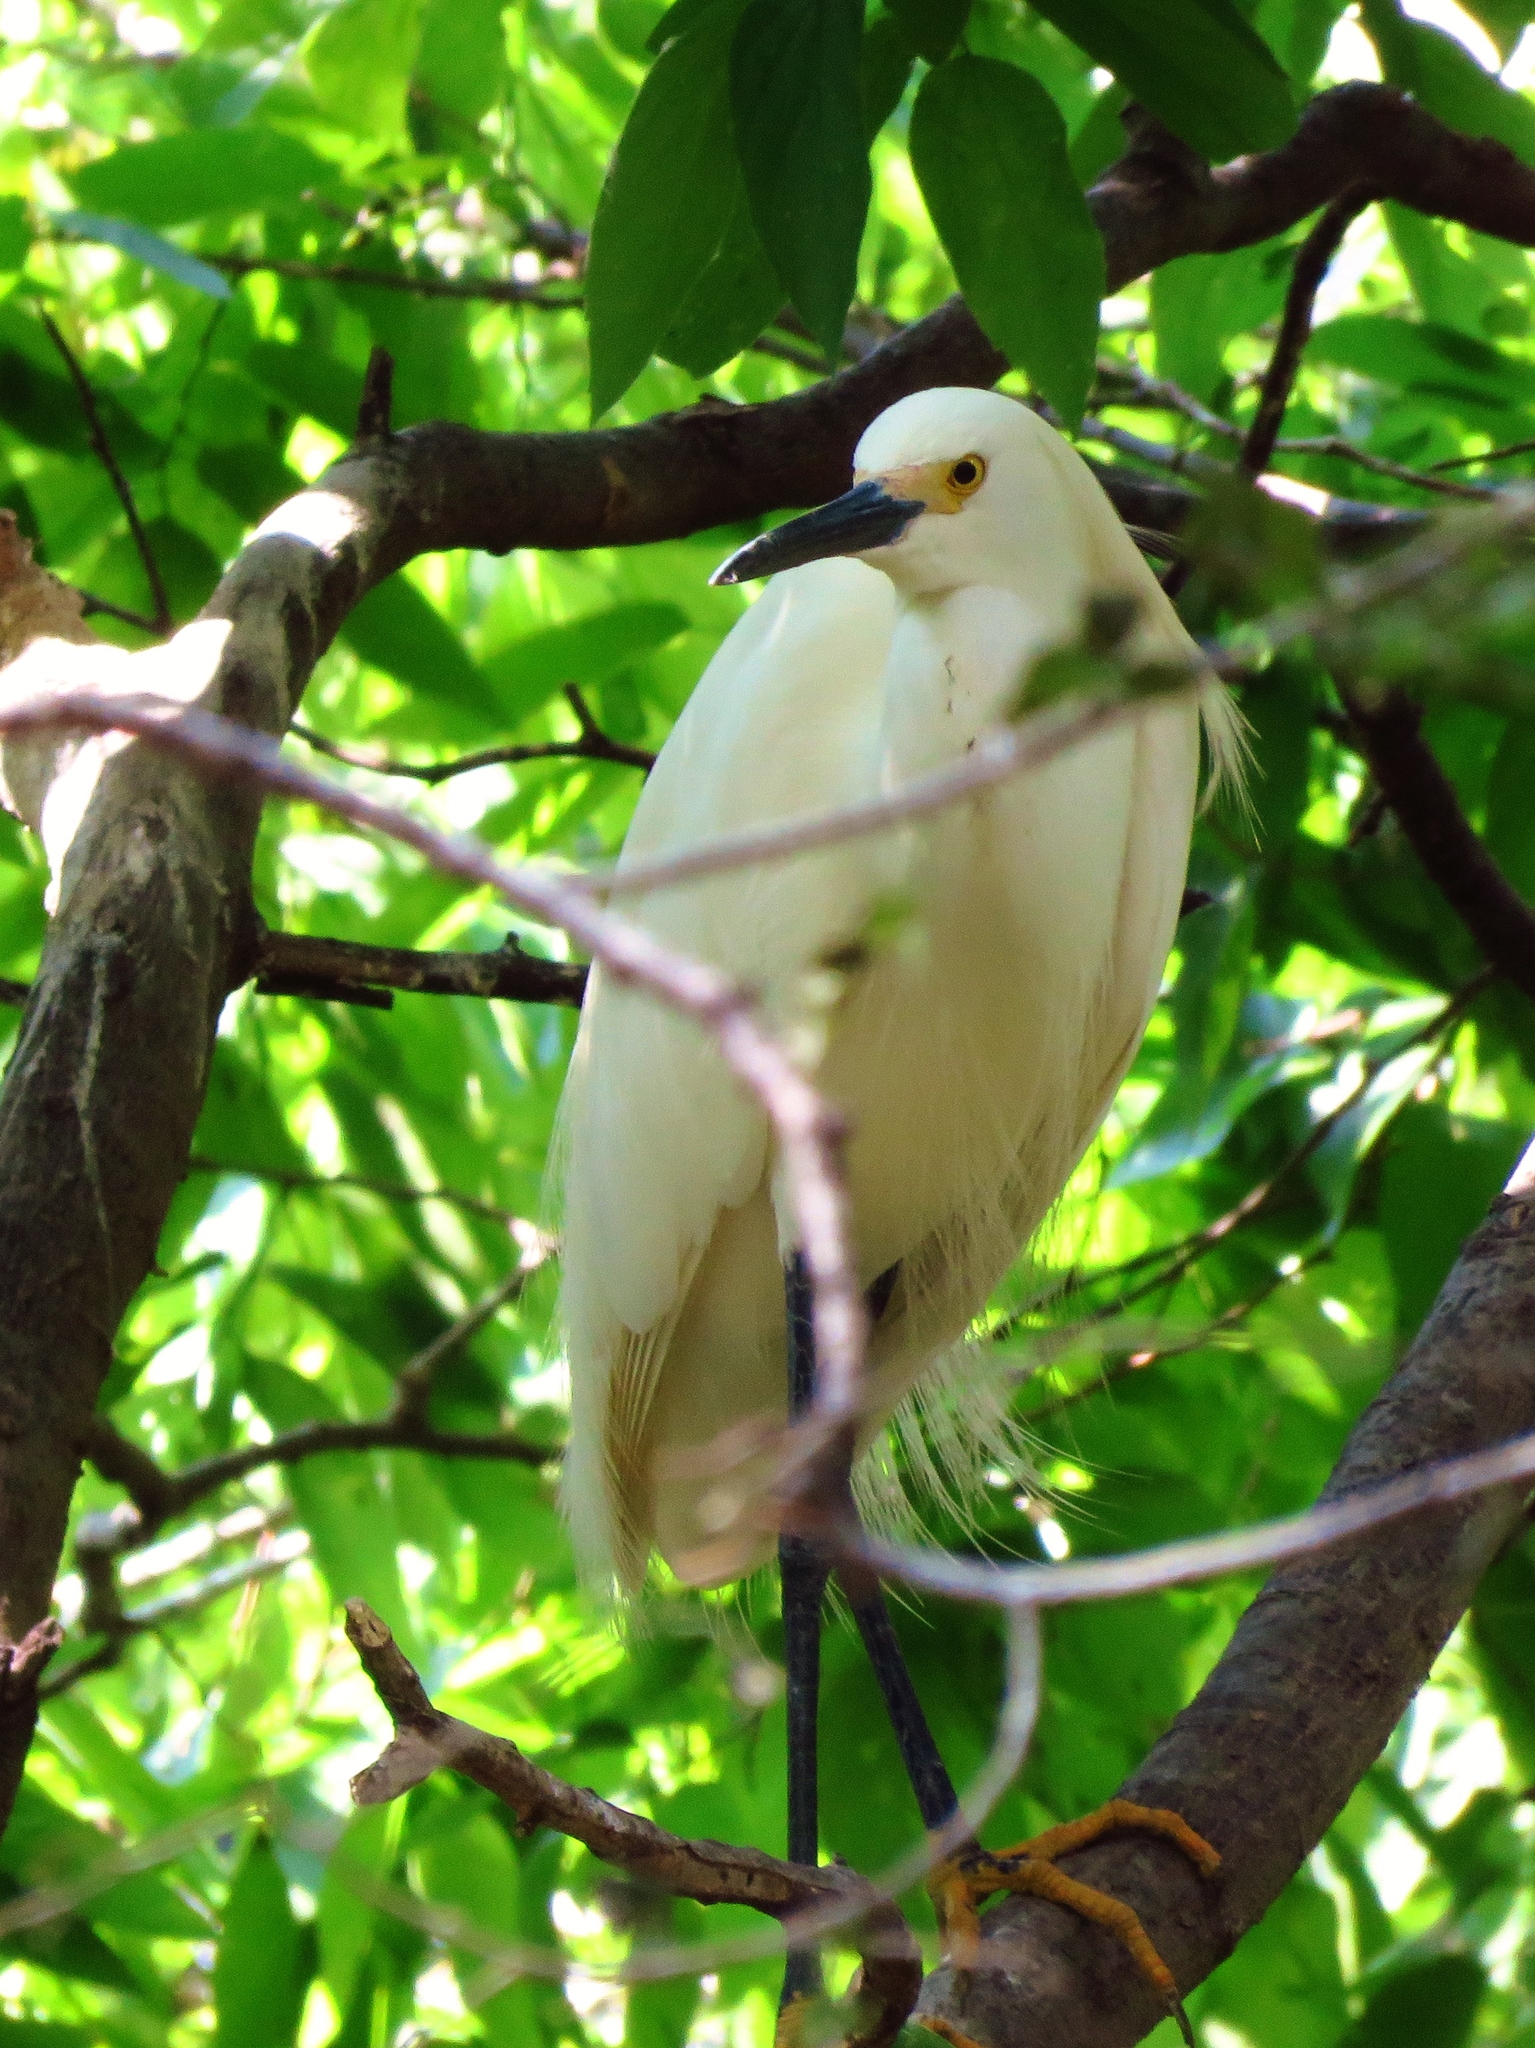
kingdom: Animalia
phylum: Chordata
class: Aves
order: Pelecaniformes
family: Ardeidae
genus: Egretta
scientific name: Egretta thula
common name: Snowy egret
